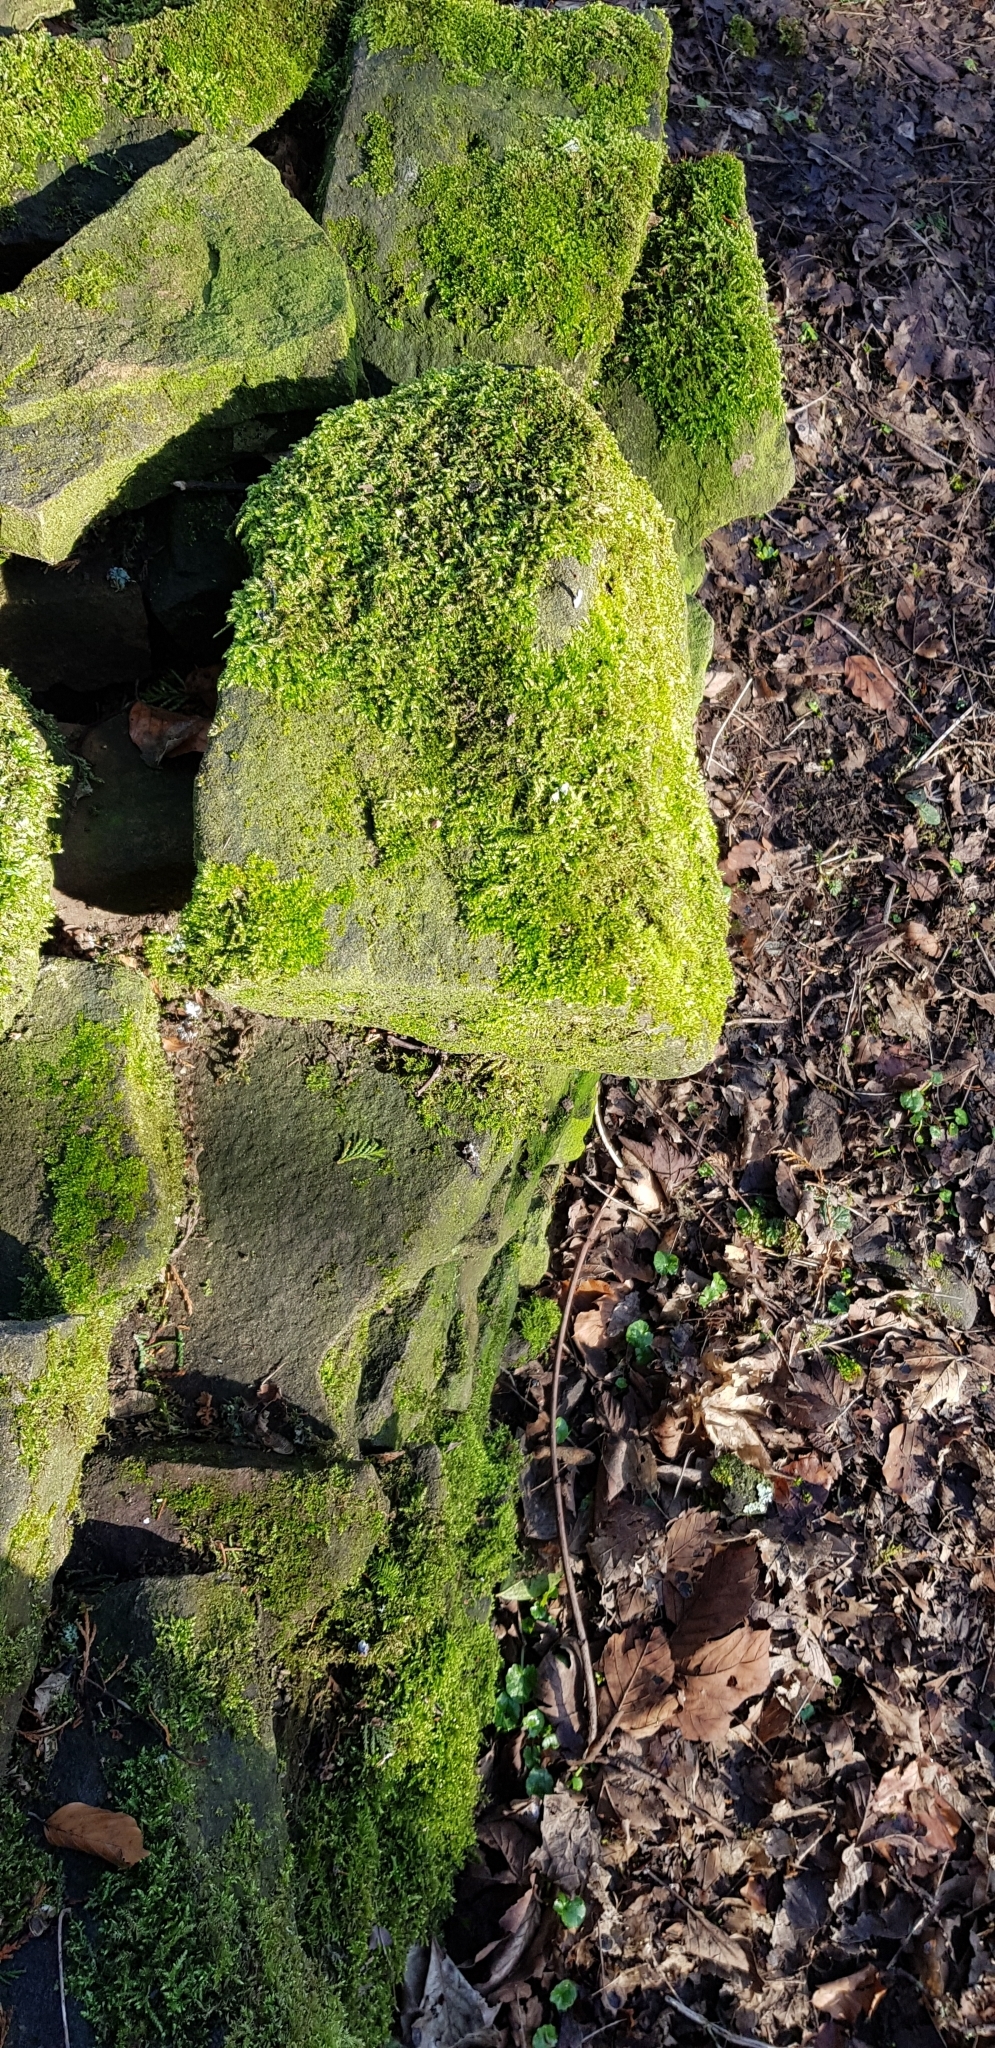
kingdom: Plantae
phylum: Bryophyta
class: Bryopsida
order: Hypnales
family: Brachytheciaceae
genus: Rhynchostegium
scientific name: Rhynchostegium confertum
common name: Clustered feather-moss
